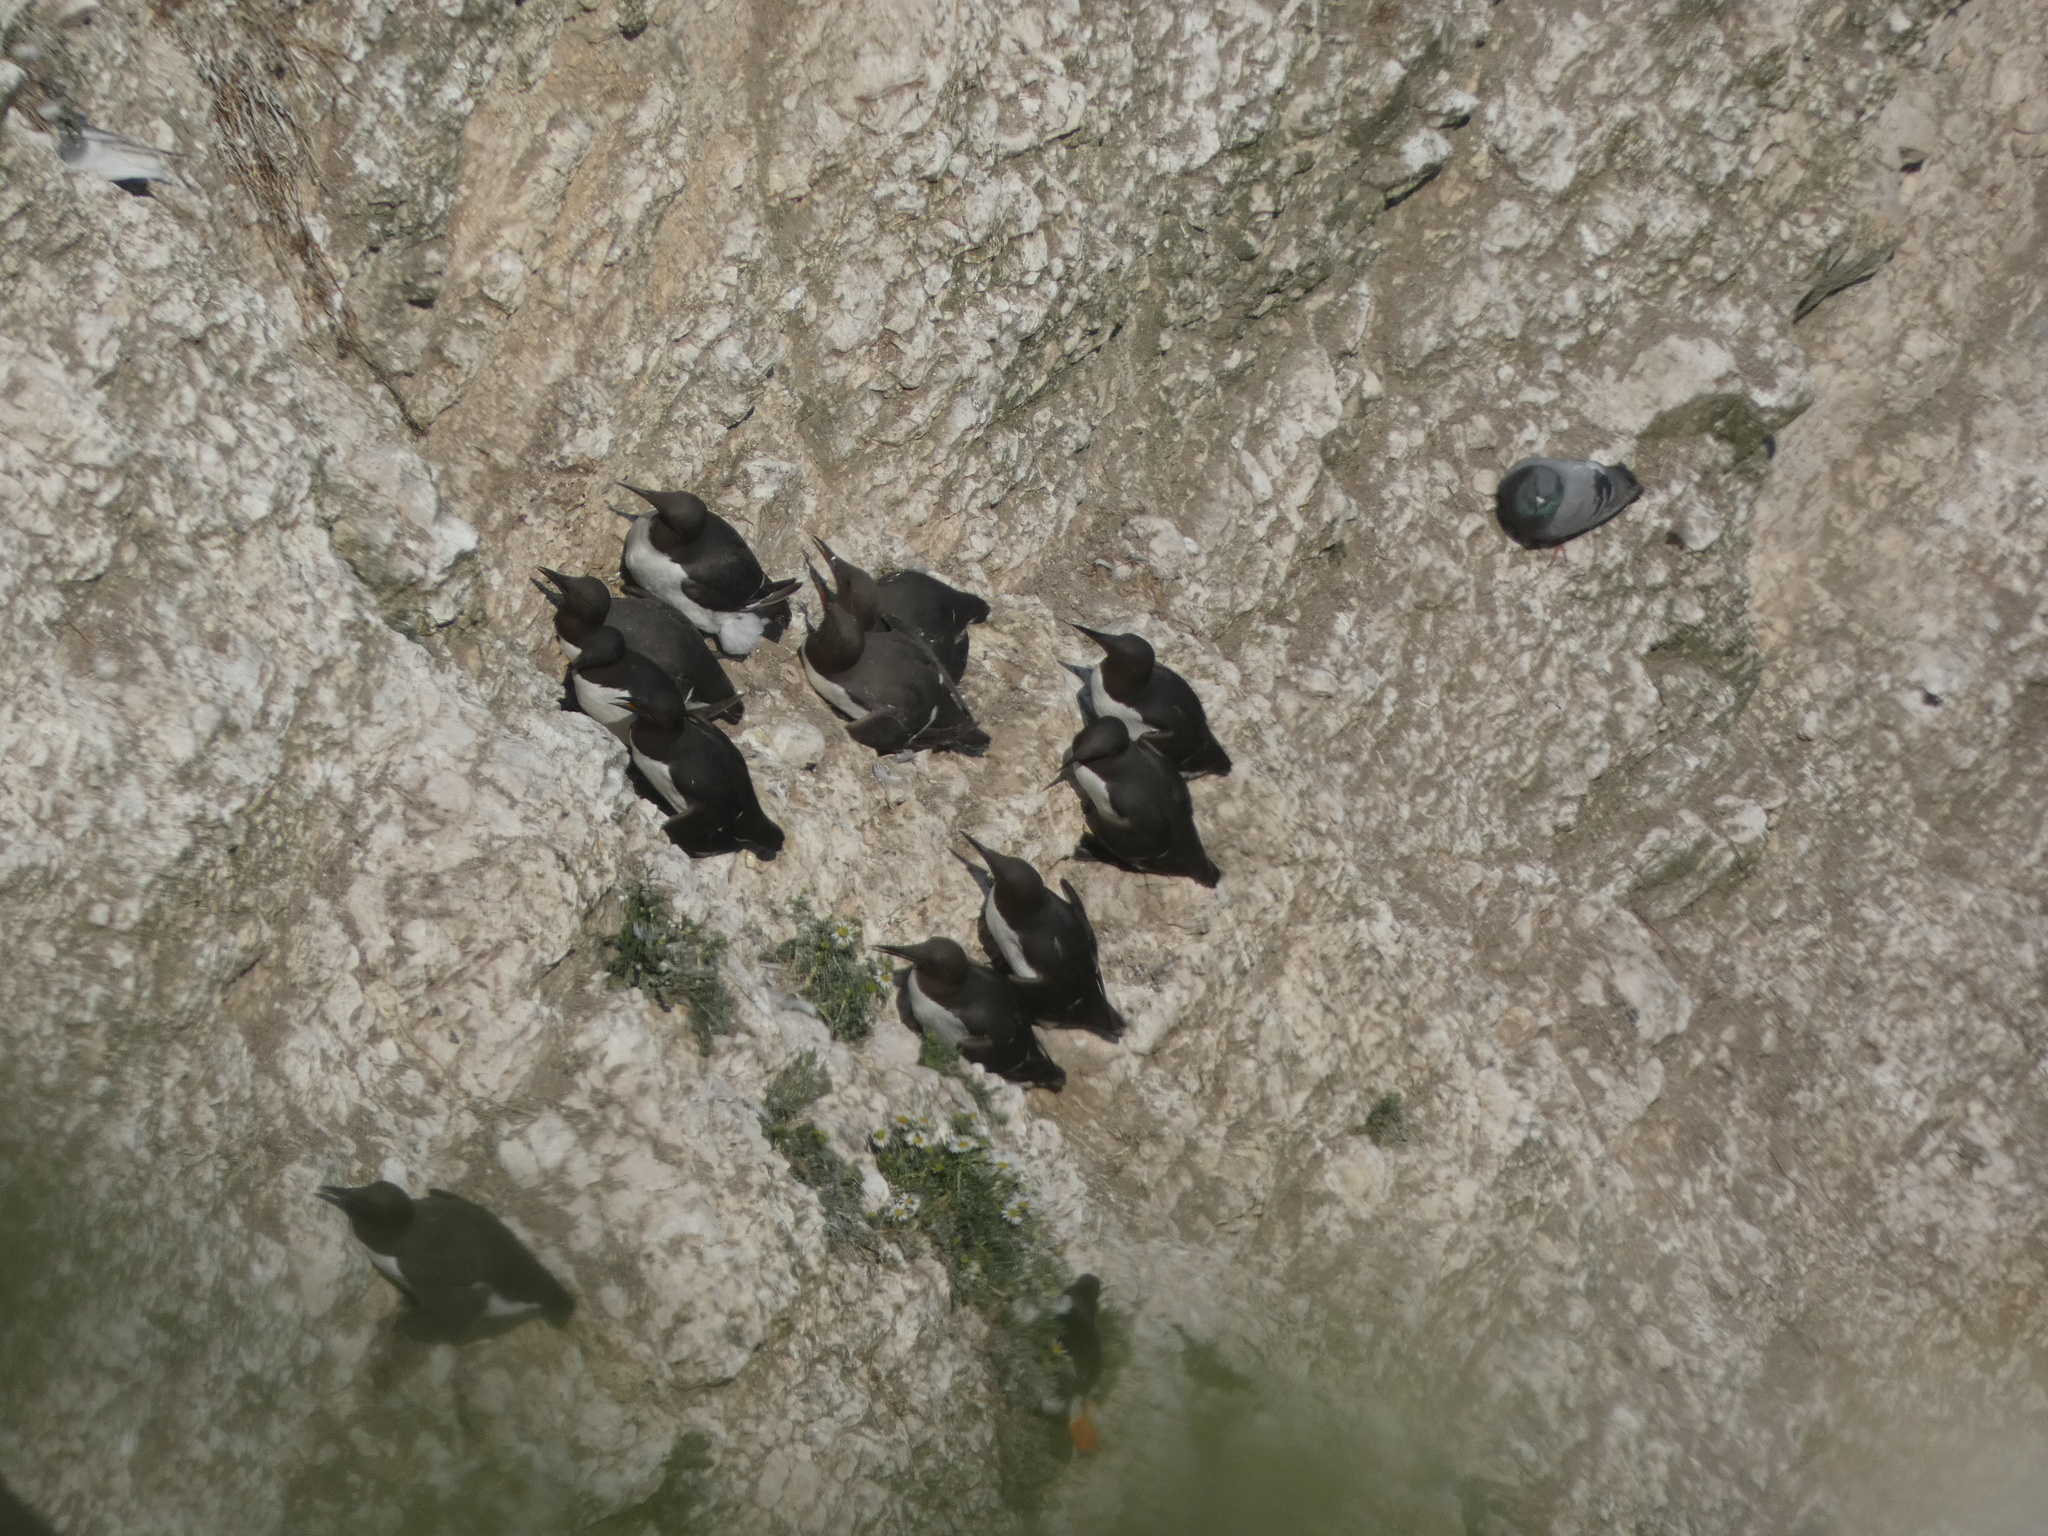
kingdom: Animalia
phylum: Chordata
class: Aves
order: Charadriiformes
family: Alcidae
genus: Uria
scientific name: Uria aalge
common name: Common murre
